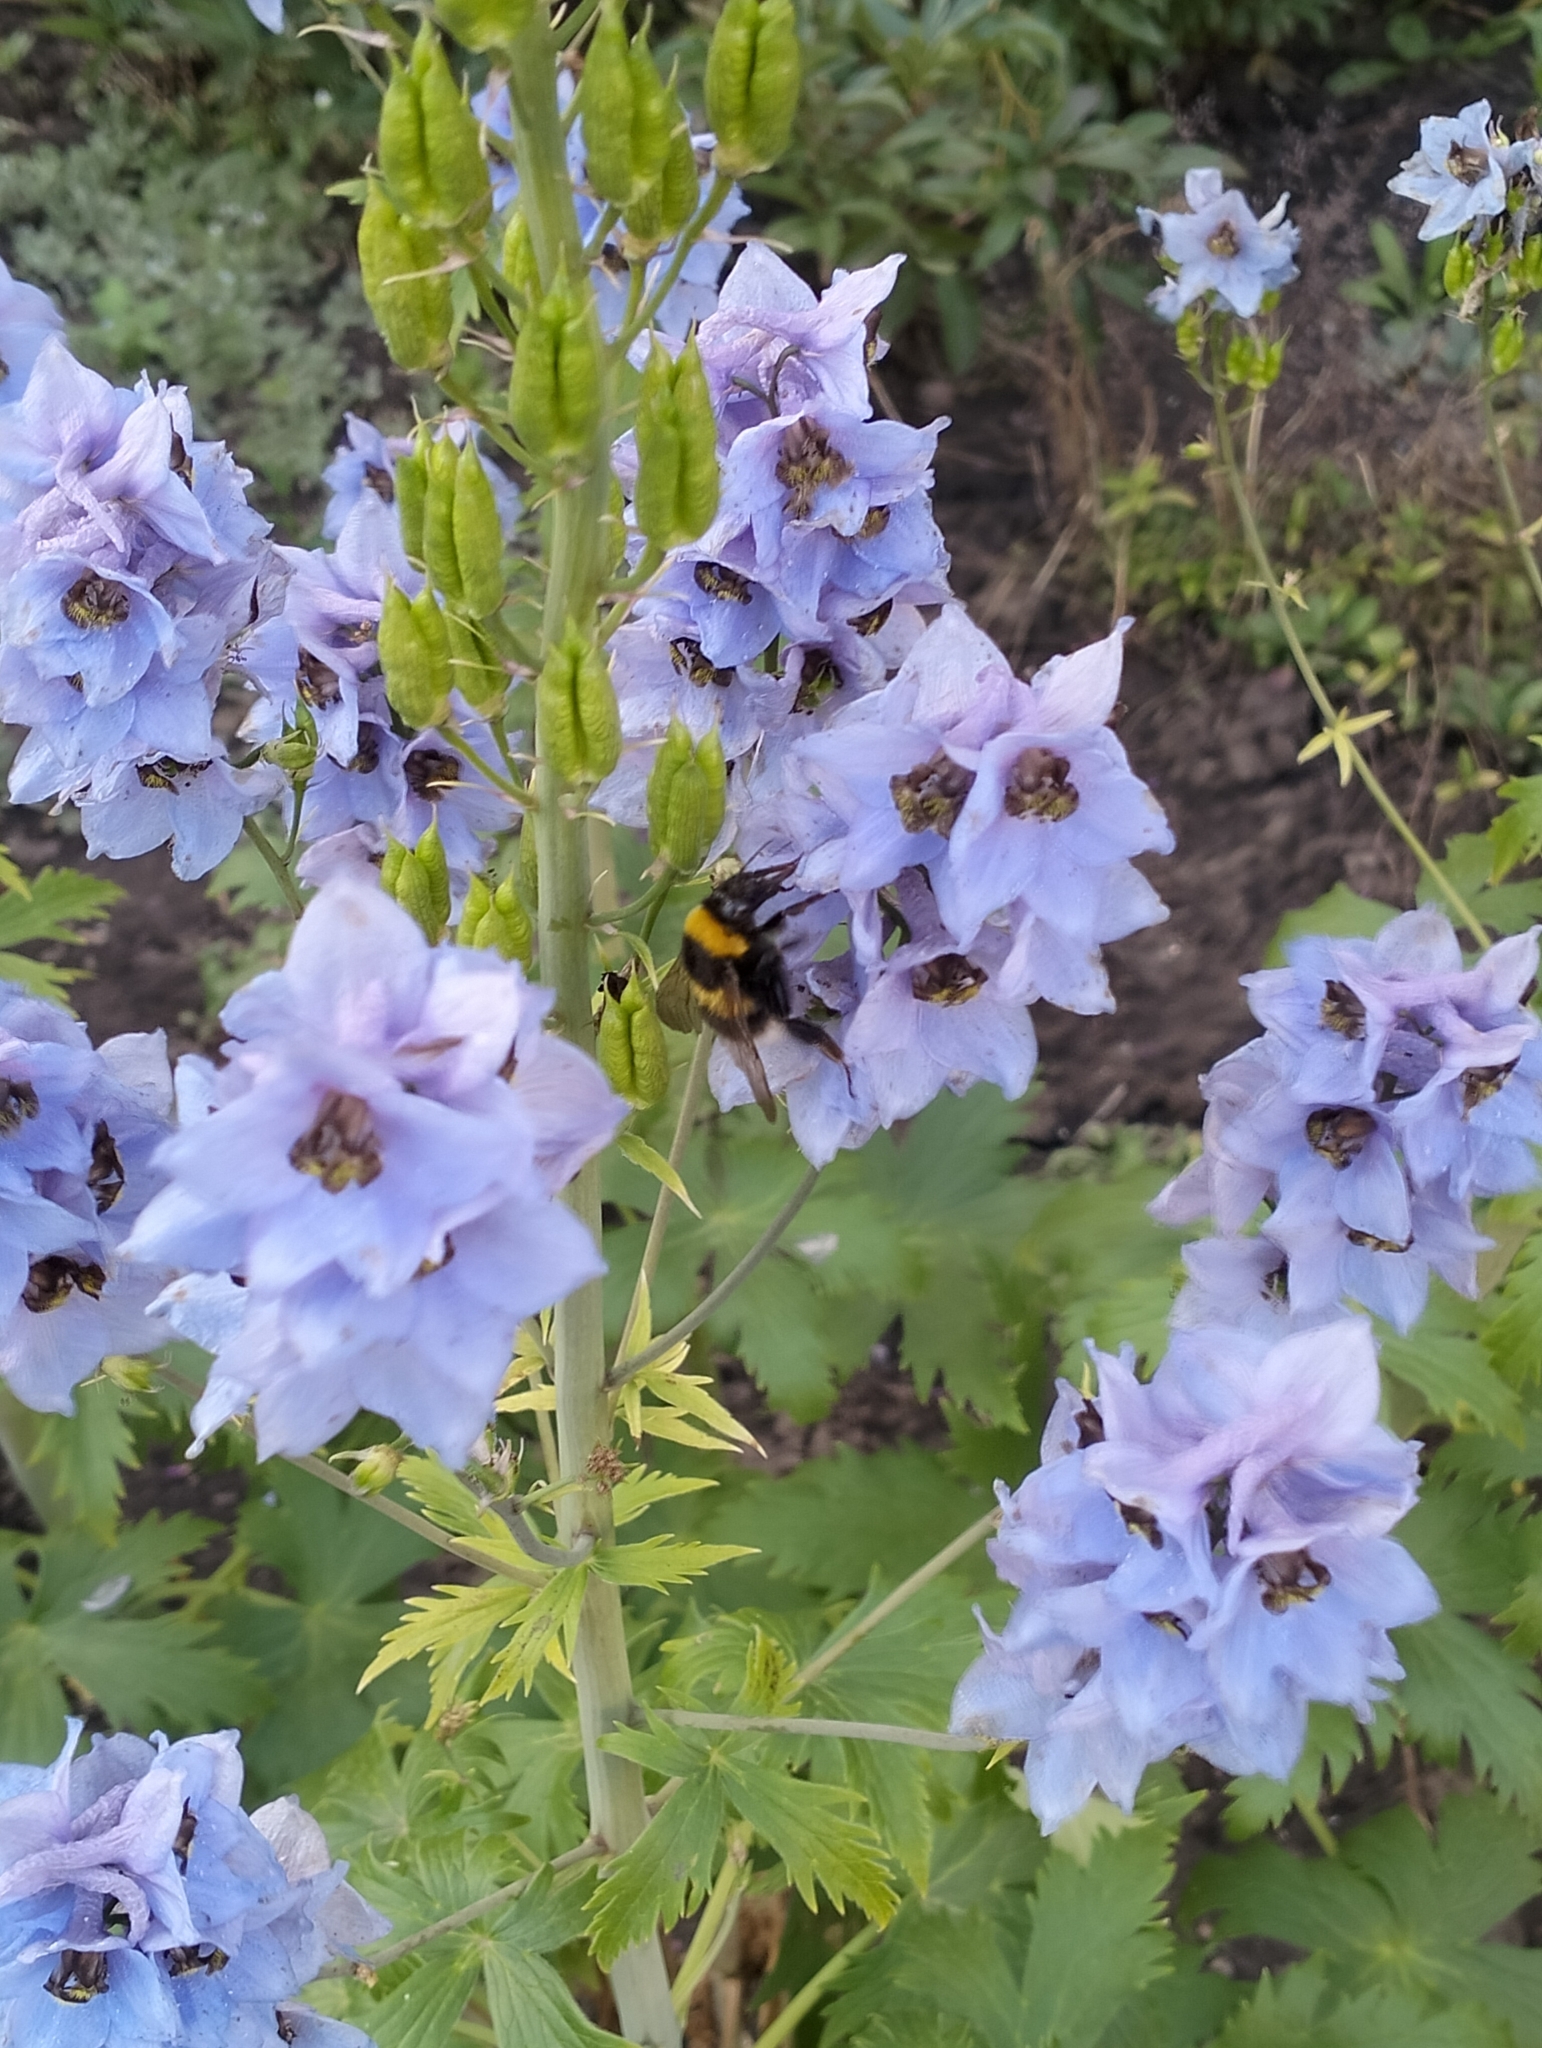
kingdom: Animalia
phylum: Arthropoda
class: Insecta
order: Hymenoptera
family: Apidae
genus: Bombus
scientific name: Bombus hortorum
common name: Garden bumblebee
